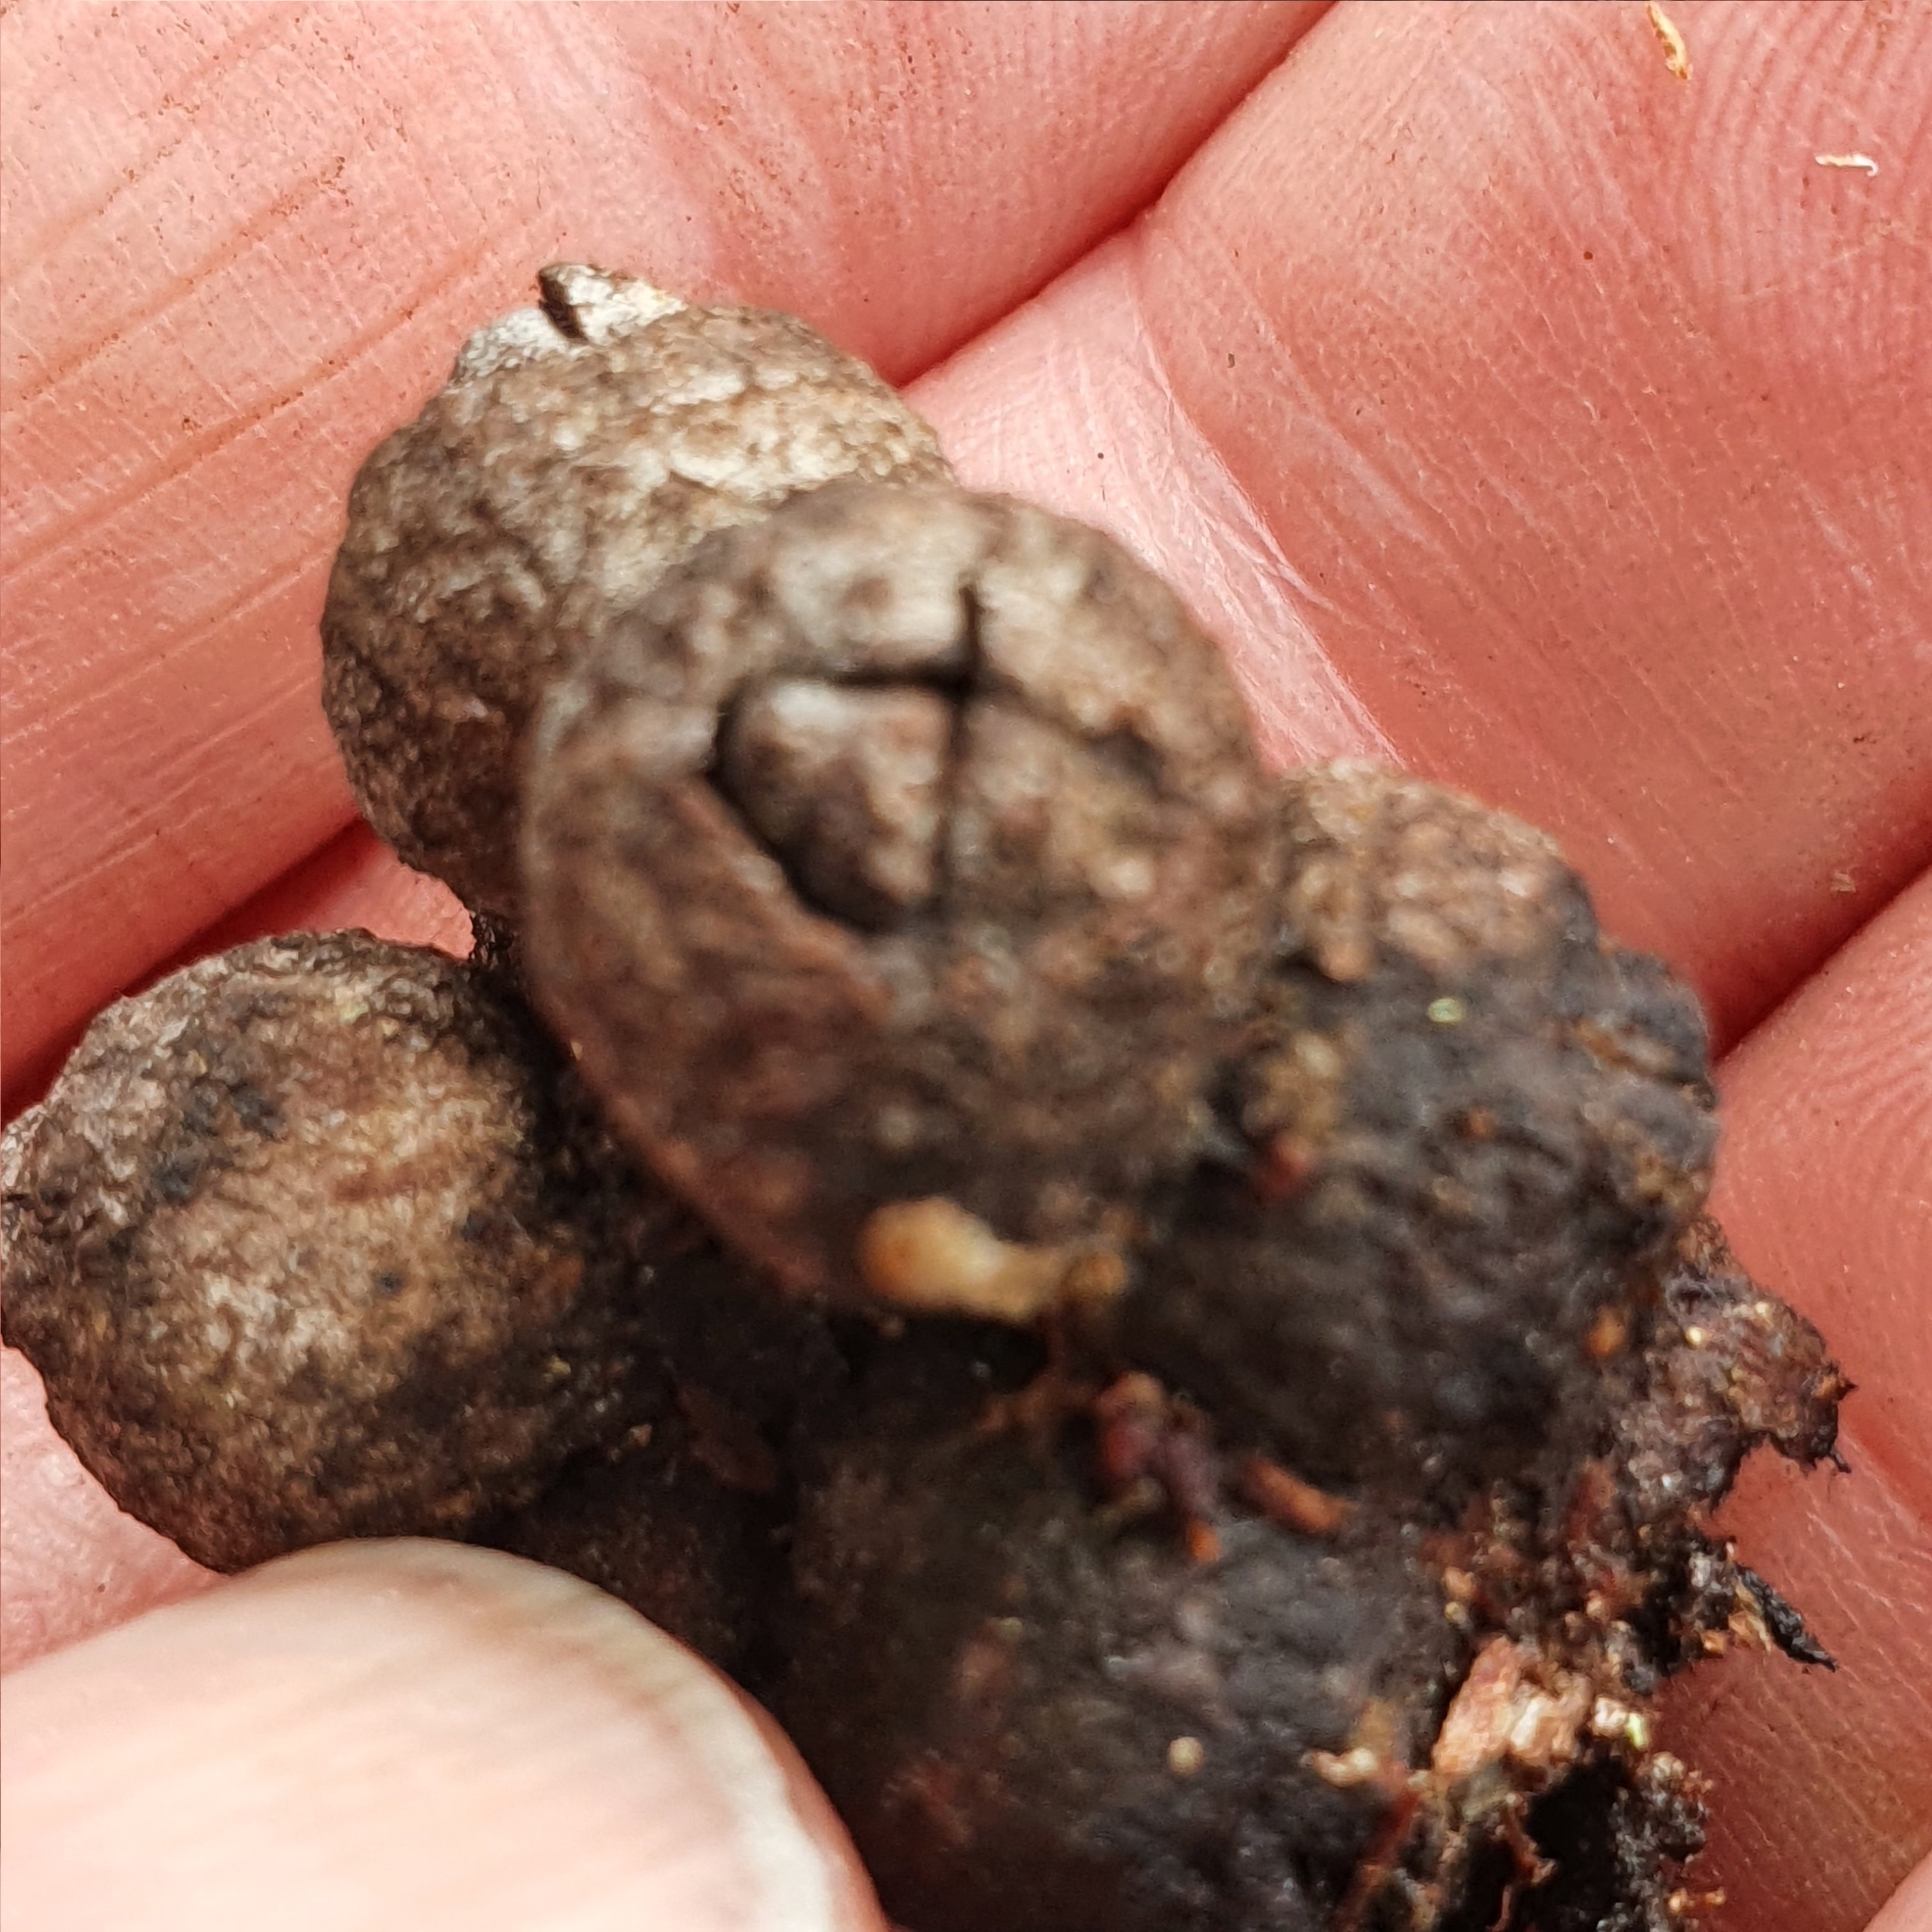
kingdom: Plantae
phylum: Tracheophyta
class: Magnoliopsida
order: Myrtales
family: Myrtaceae
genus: Eucalyptus
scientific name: Eucalyptus blaxlandii
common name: Blaxland's stringybark
